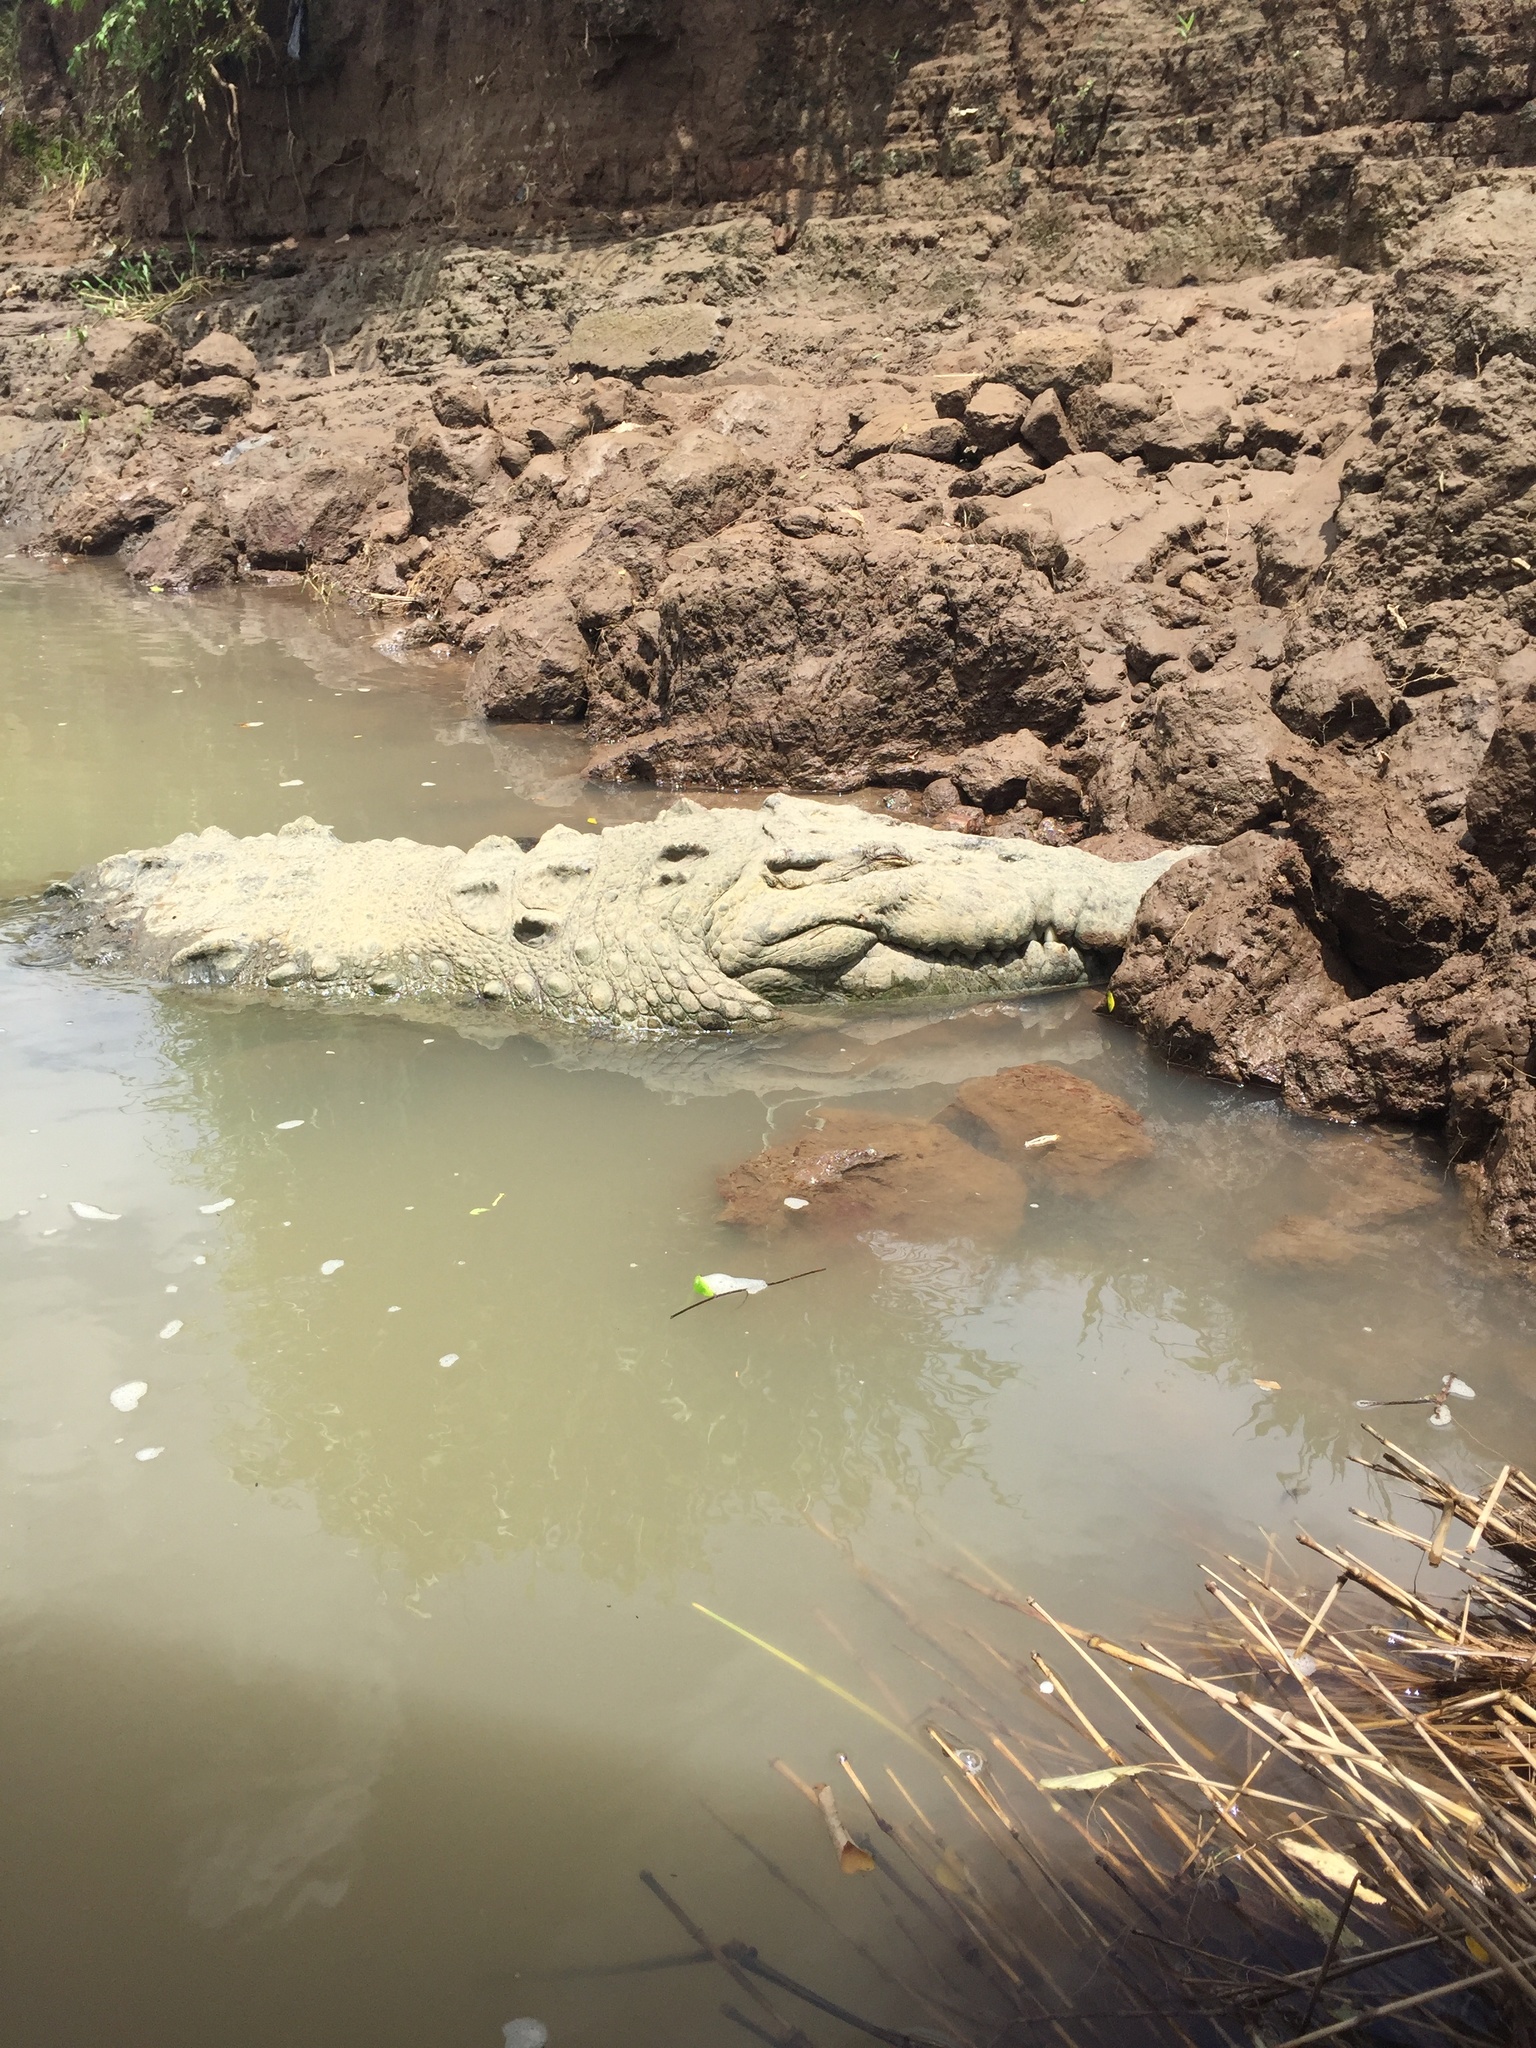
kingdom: Animalia
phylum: Chordata
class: Crocodylia
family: Crocodylidae
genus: Crocodylus
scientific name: Crocodylus acutus
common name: American crocodile
